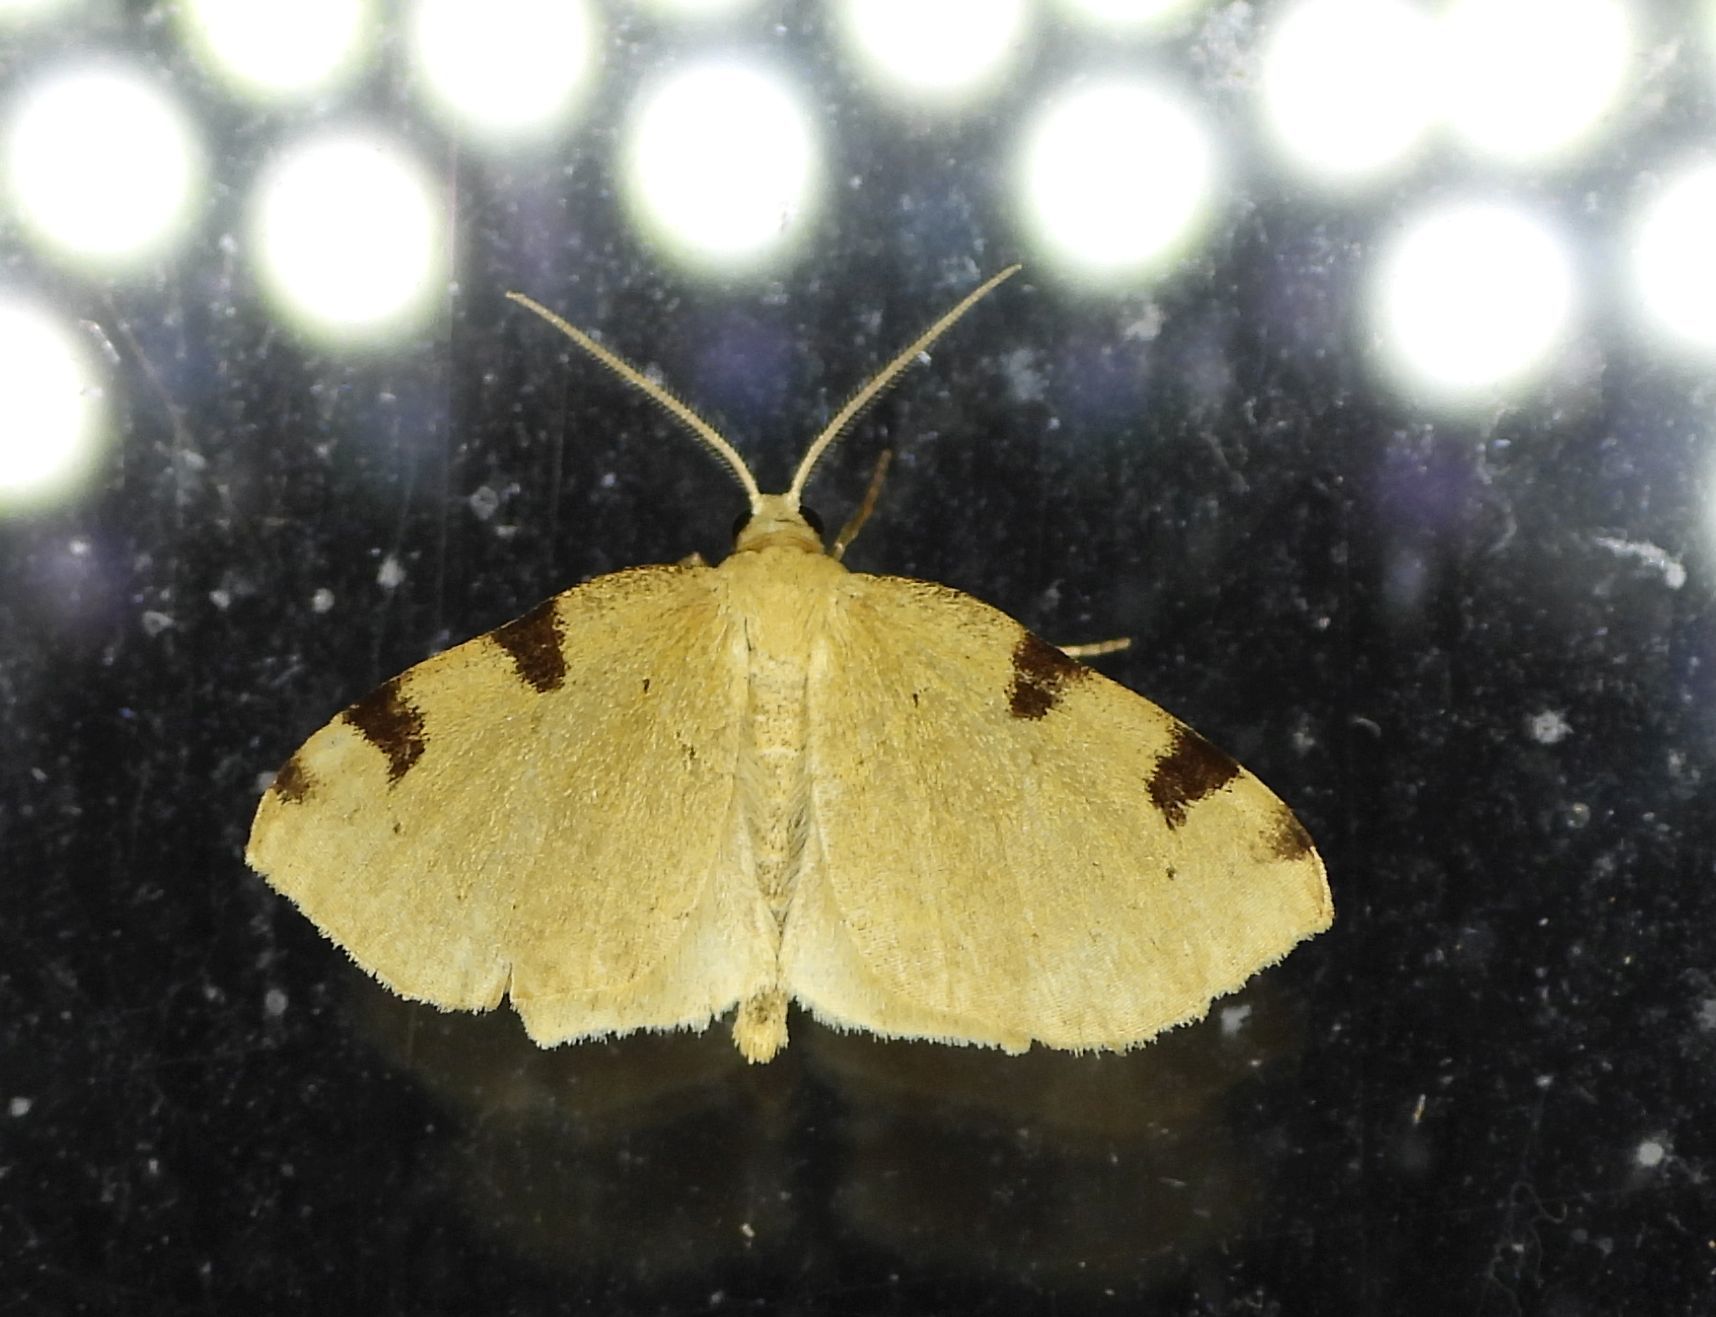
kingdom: Animalia
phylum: Arthropoda
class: Insecta
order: Lepidoptera
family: Geometridae
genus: Heterophleps
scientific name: Heterophleps triguttaria
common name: Three-spotted fillip
